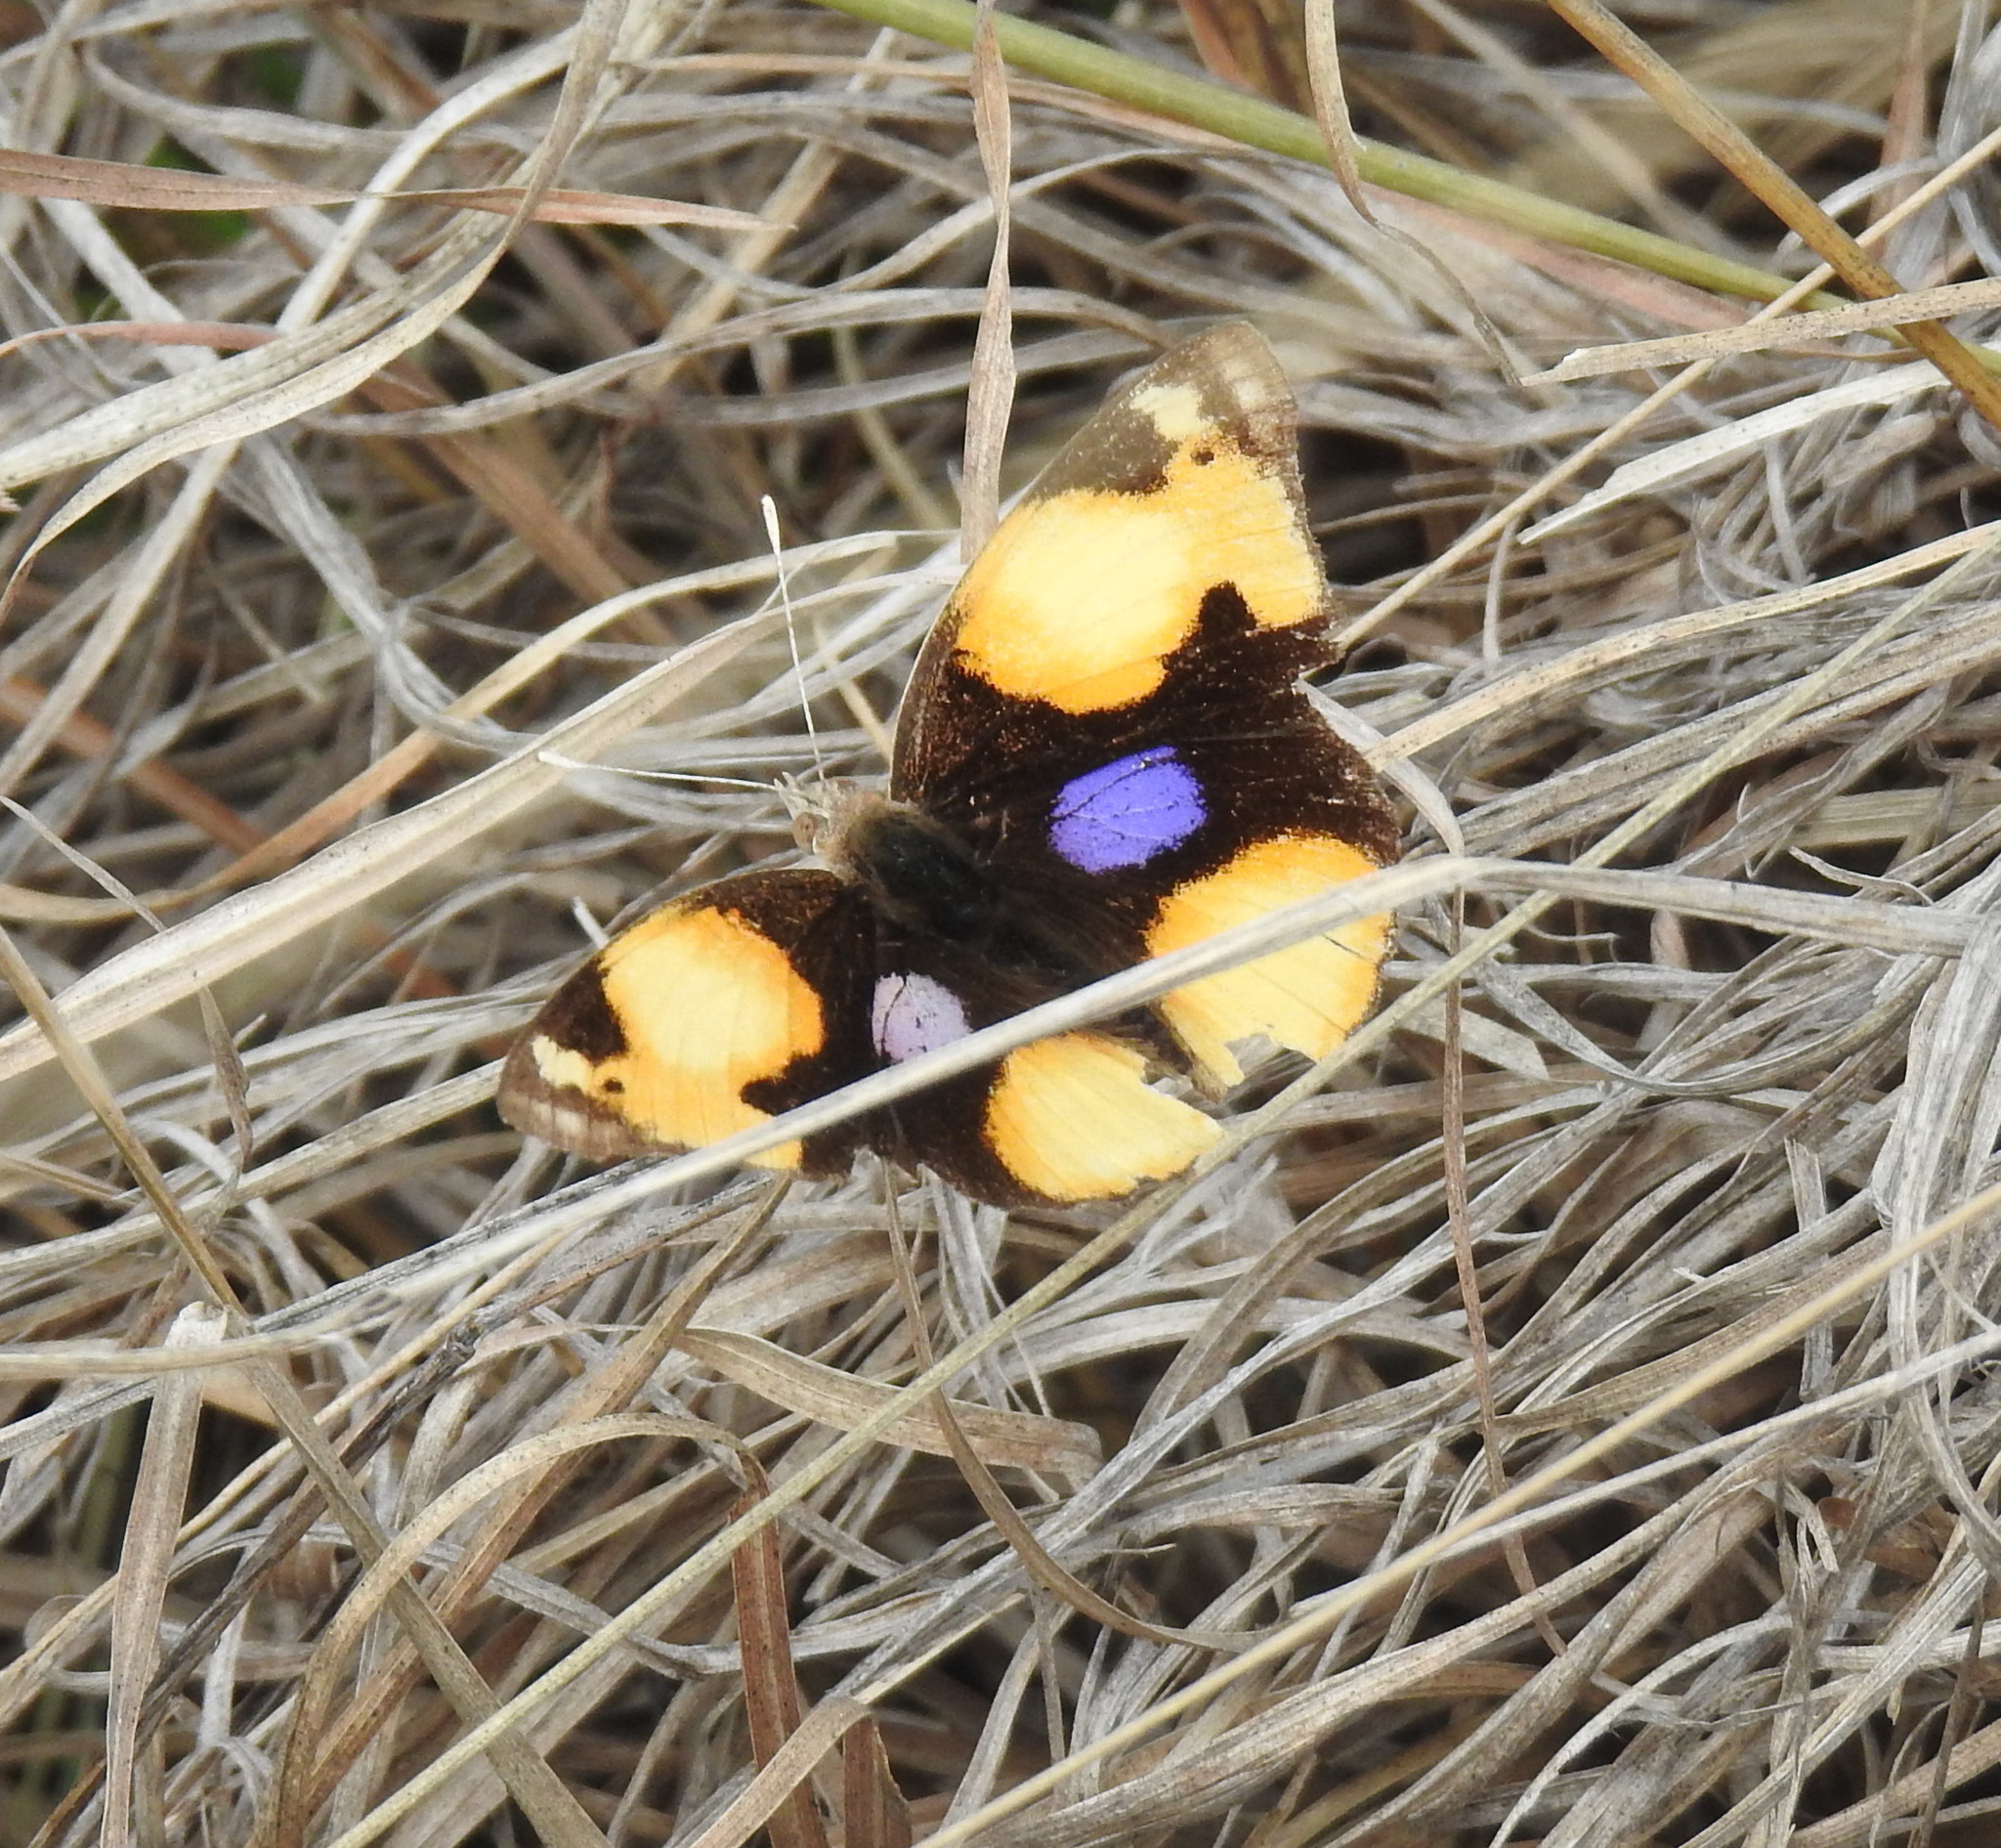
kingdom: Animalia
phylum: Arthropoda
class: Insecta
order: Lepidoptera
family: Nymphalidae
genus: Junonia
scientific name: Junonia hierta
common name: Yellow pansy
